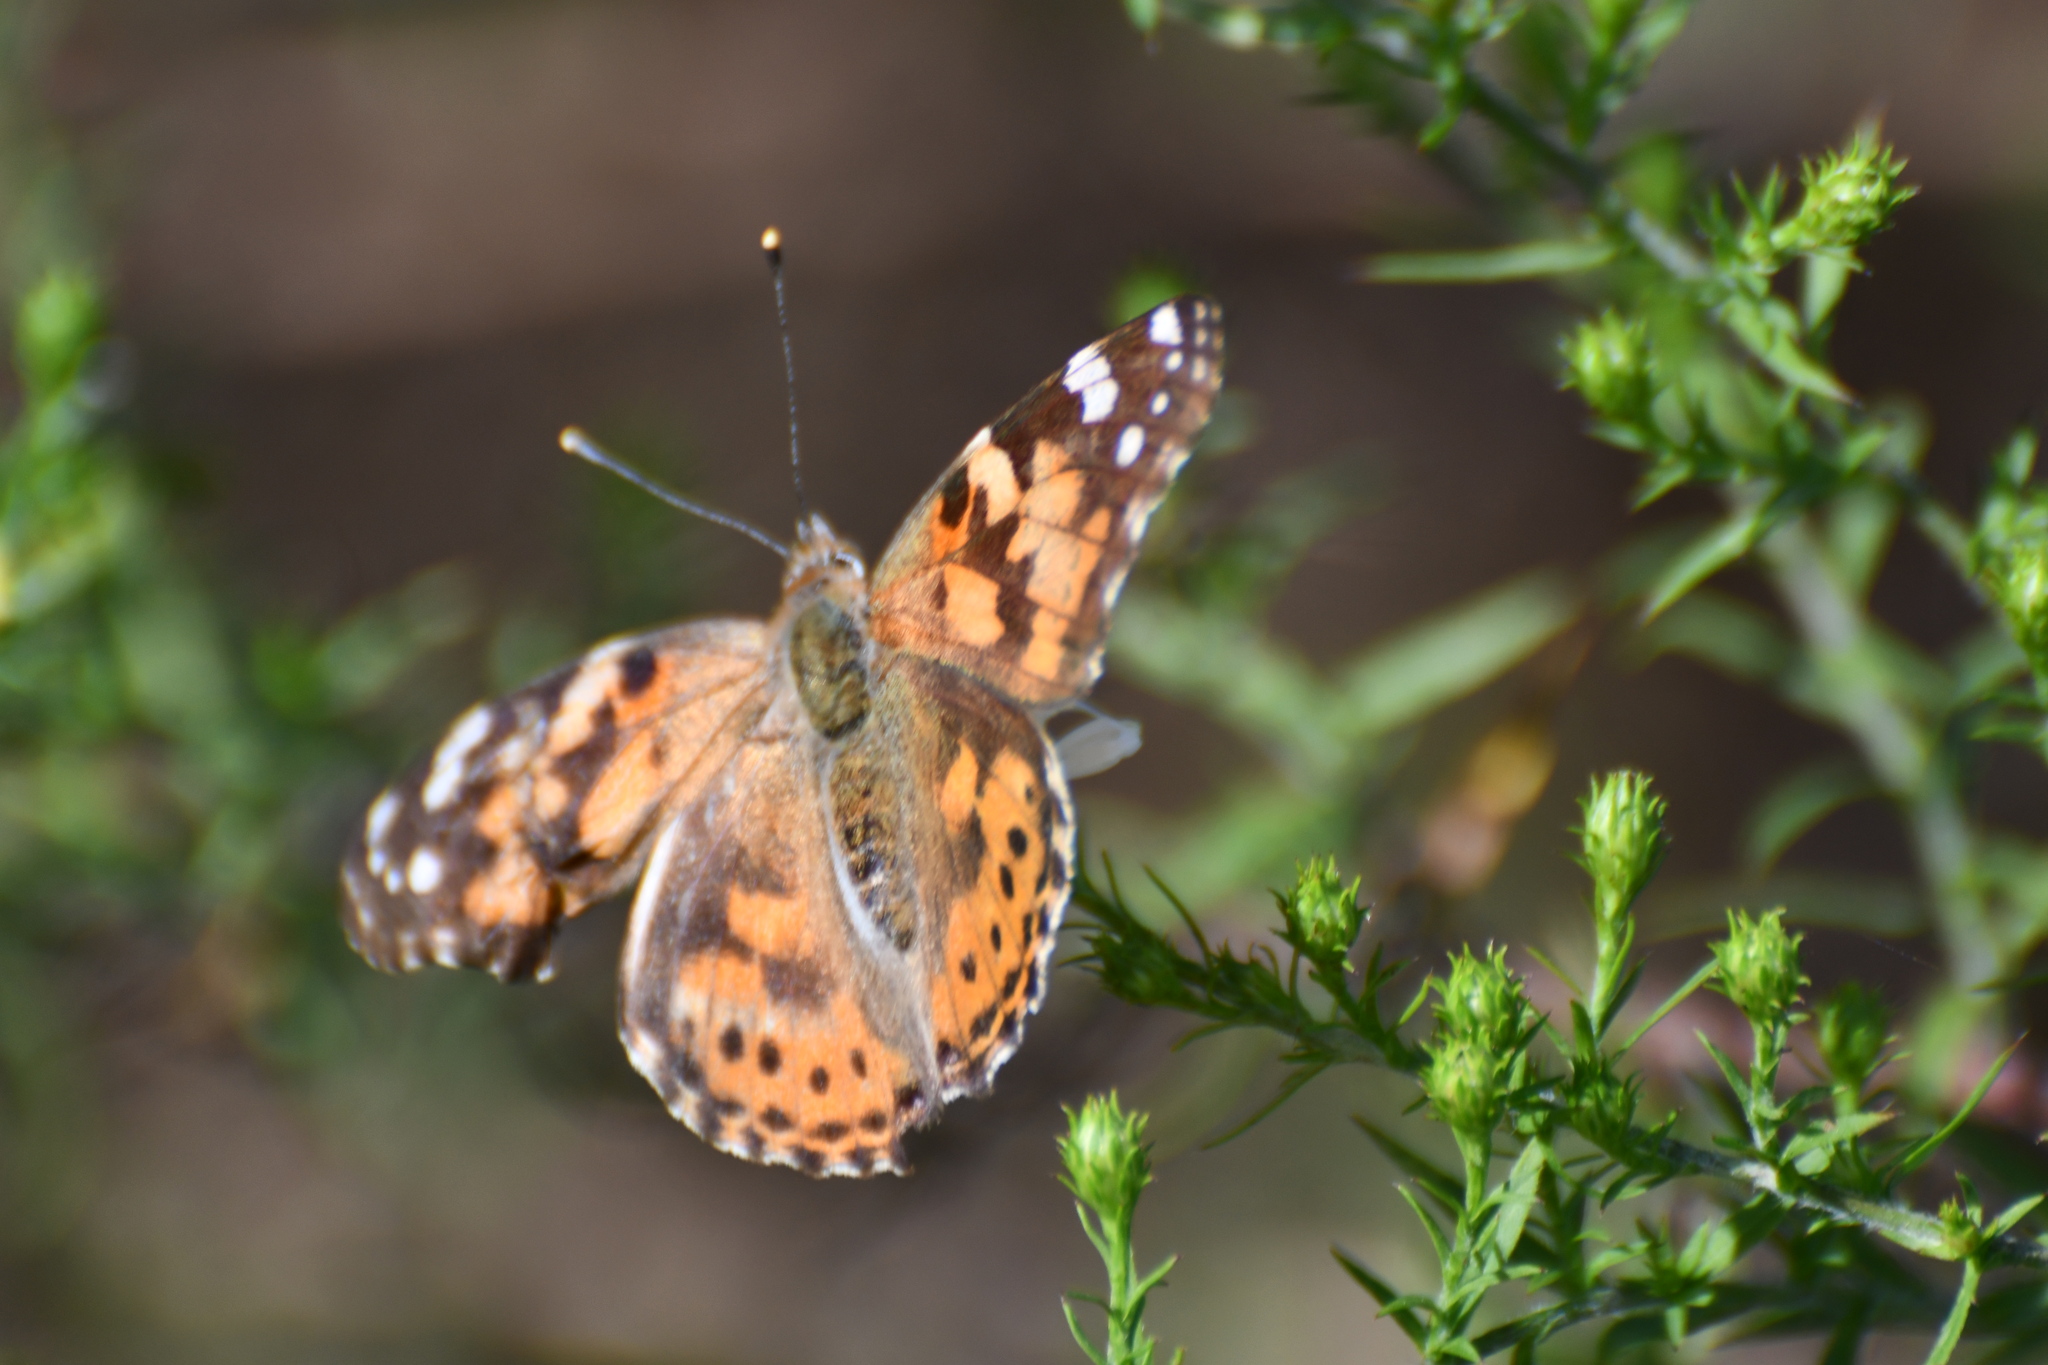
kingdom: Animalia
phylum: Arthropoda
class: Insecta
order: Lepidoptera
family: Nymphalidae
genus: Vanessa
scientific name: Vanessa cardui
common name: Painted lady
